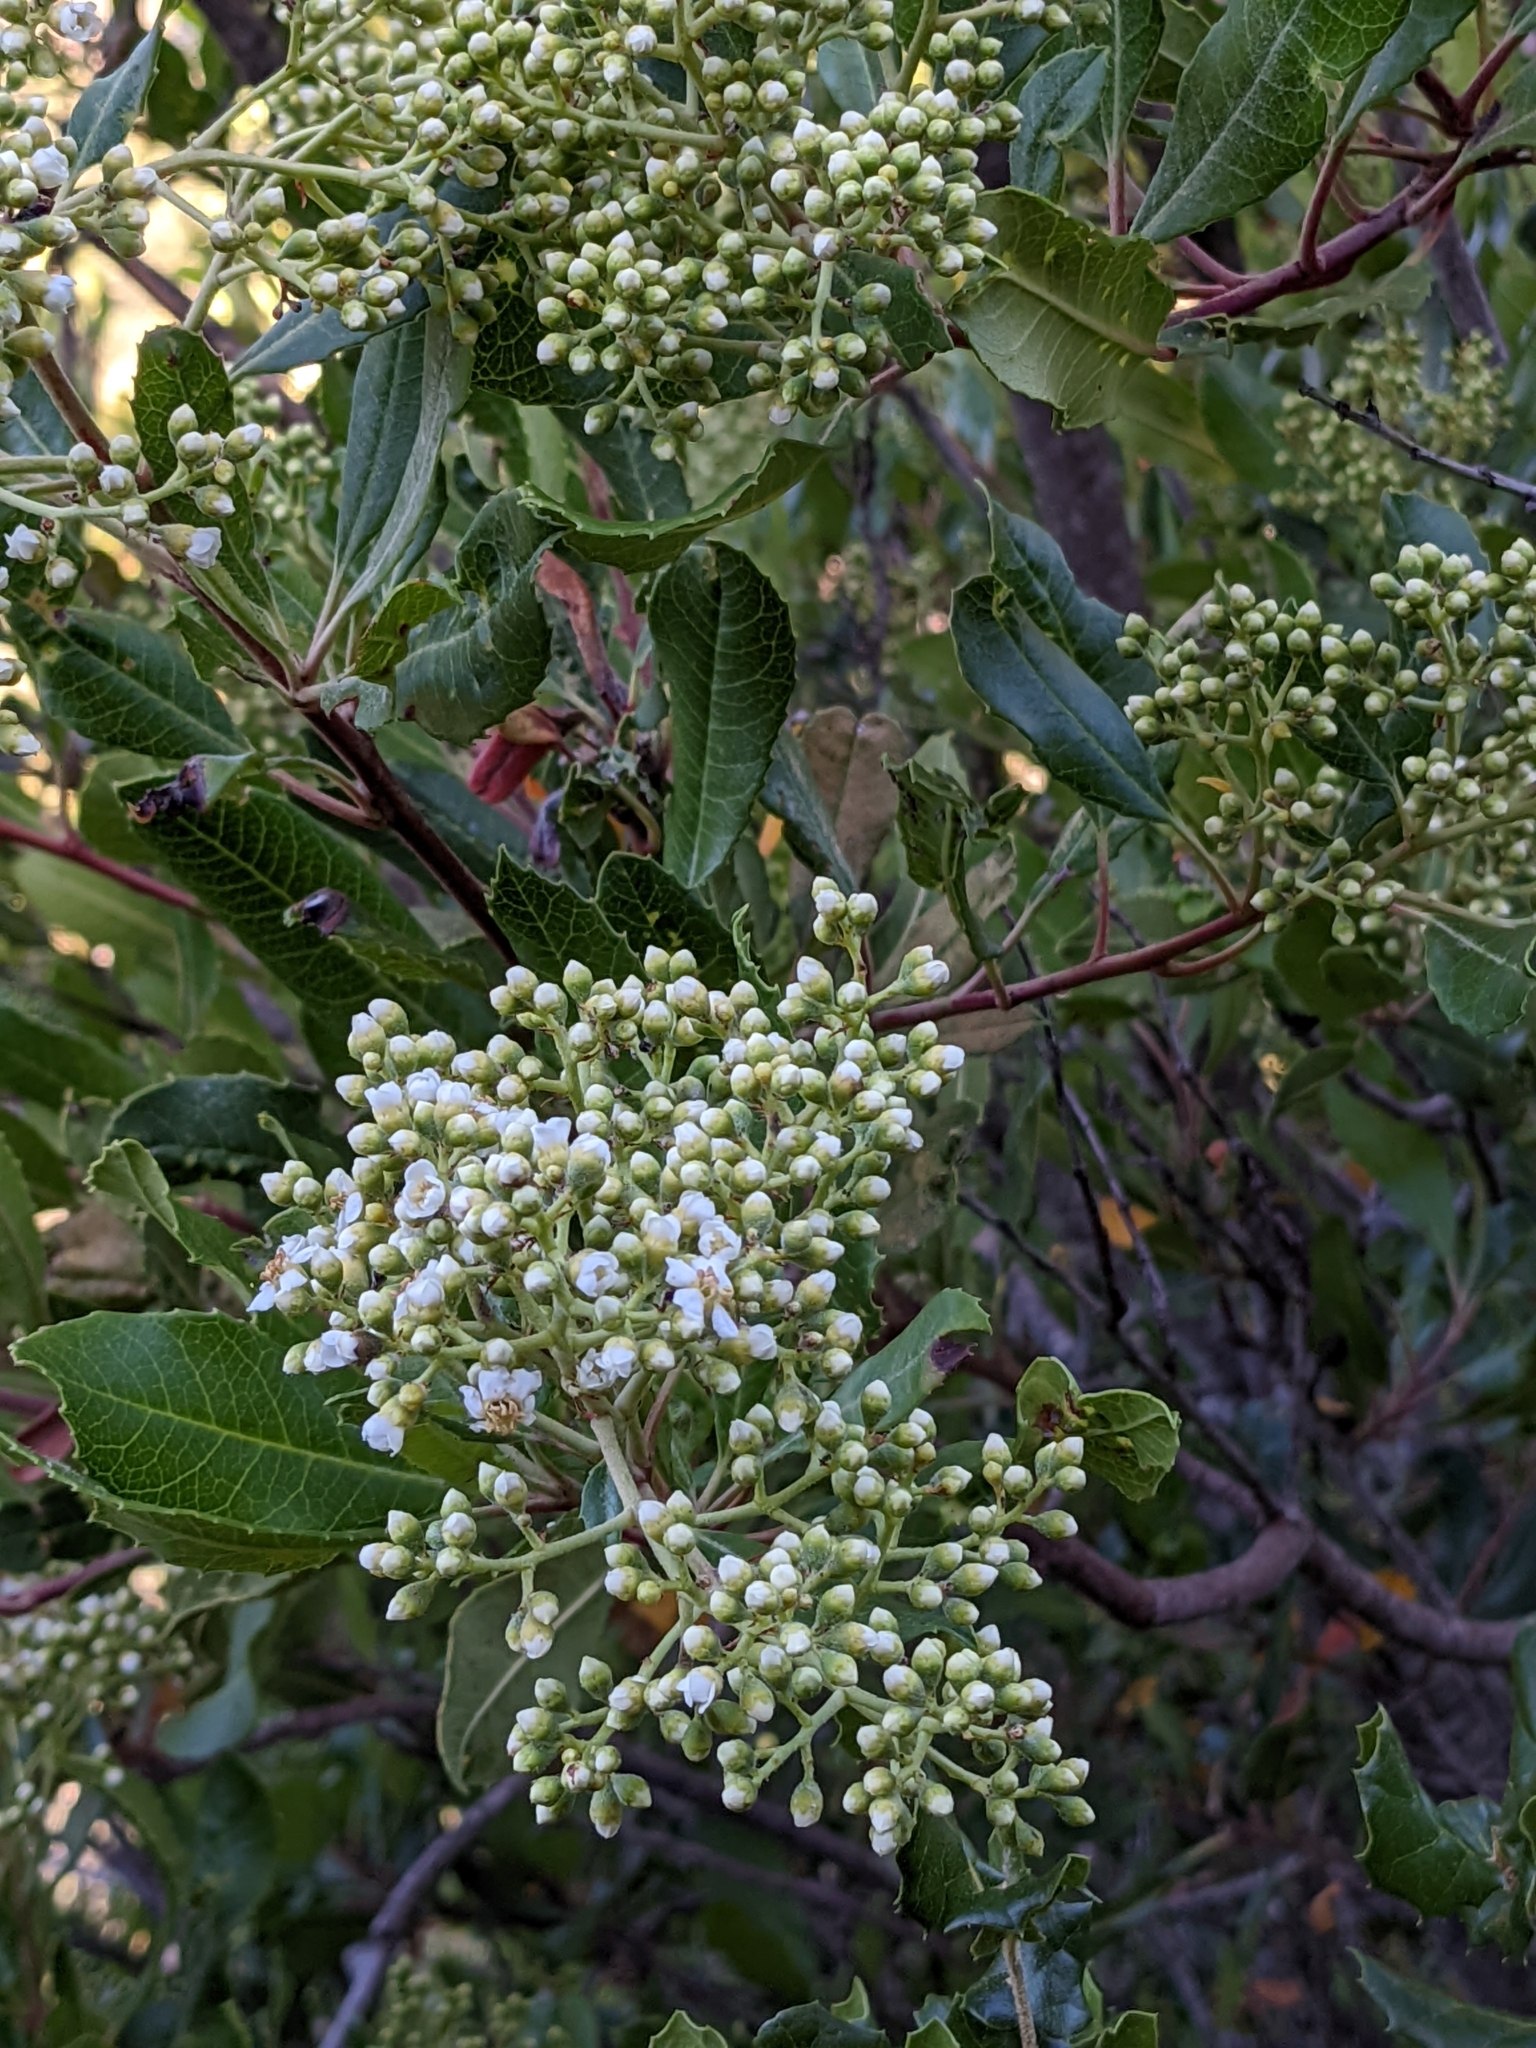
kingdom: Plantae
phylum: Tracheophyta
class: Magnoliopsida
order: Rosales
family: Rosaceae
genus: Heteromeles
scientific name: Heteromeles arbutifolia
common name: California-holly
